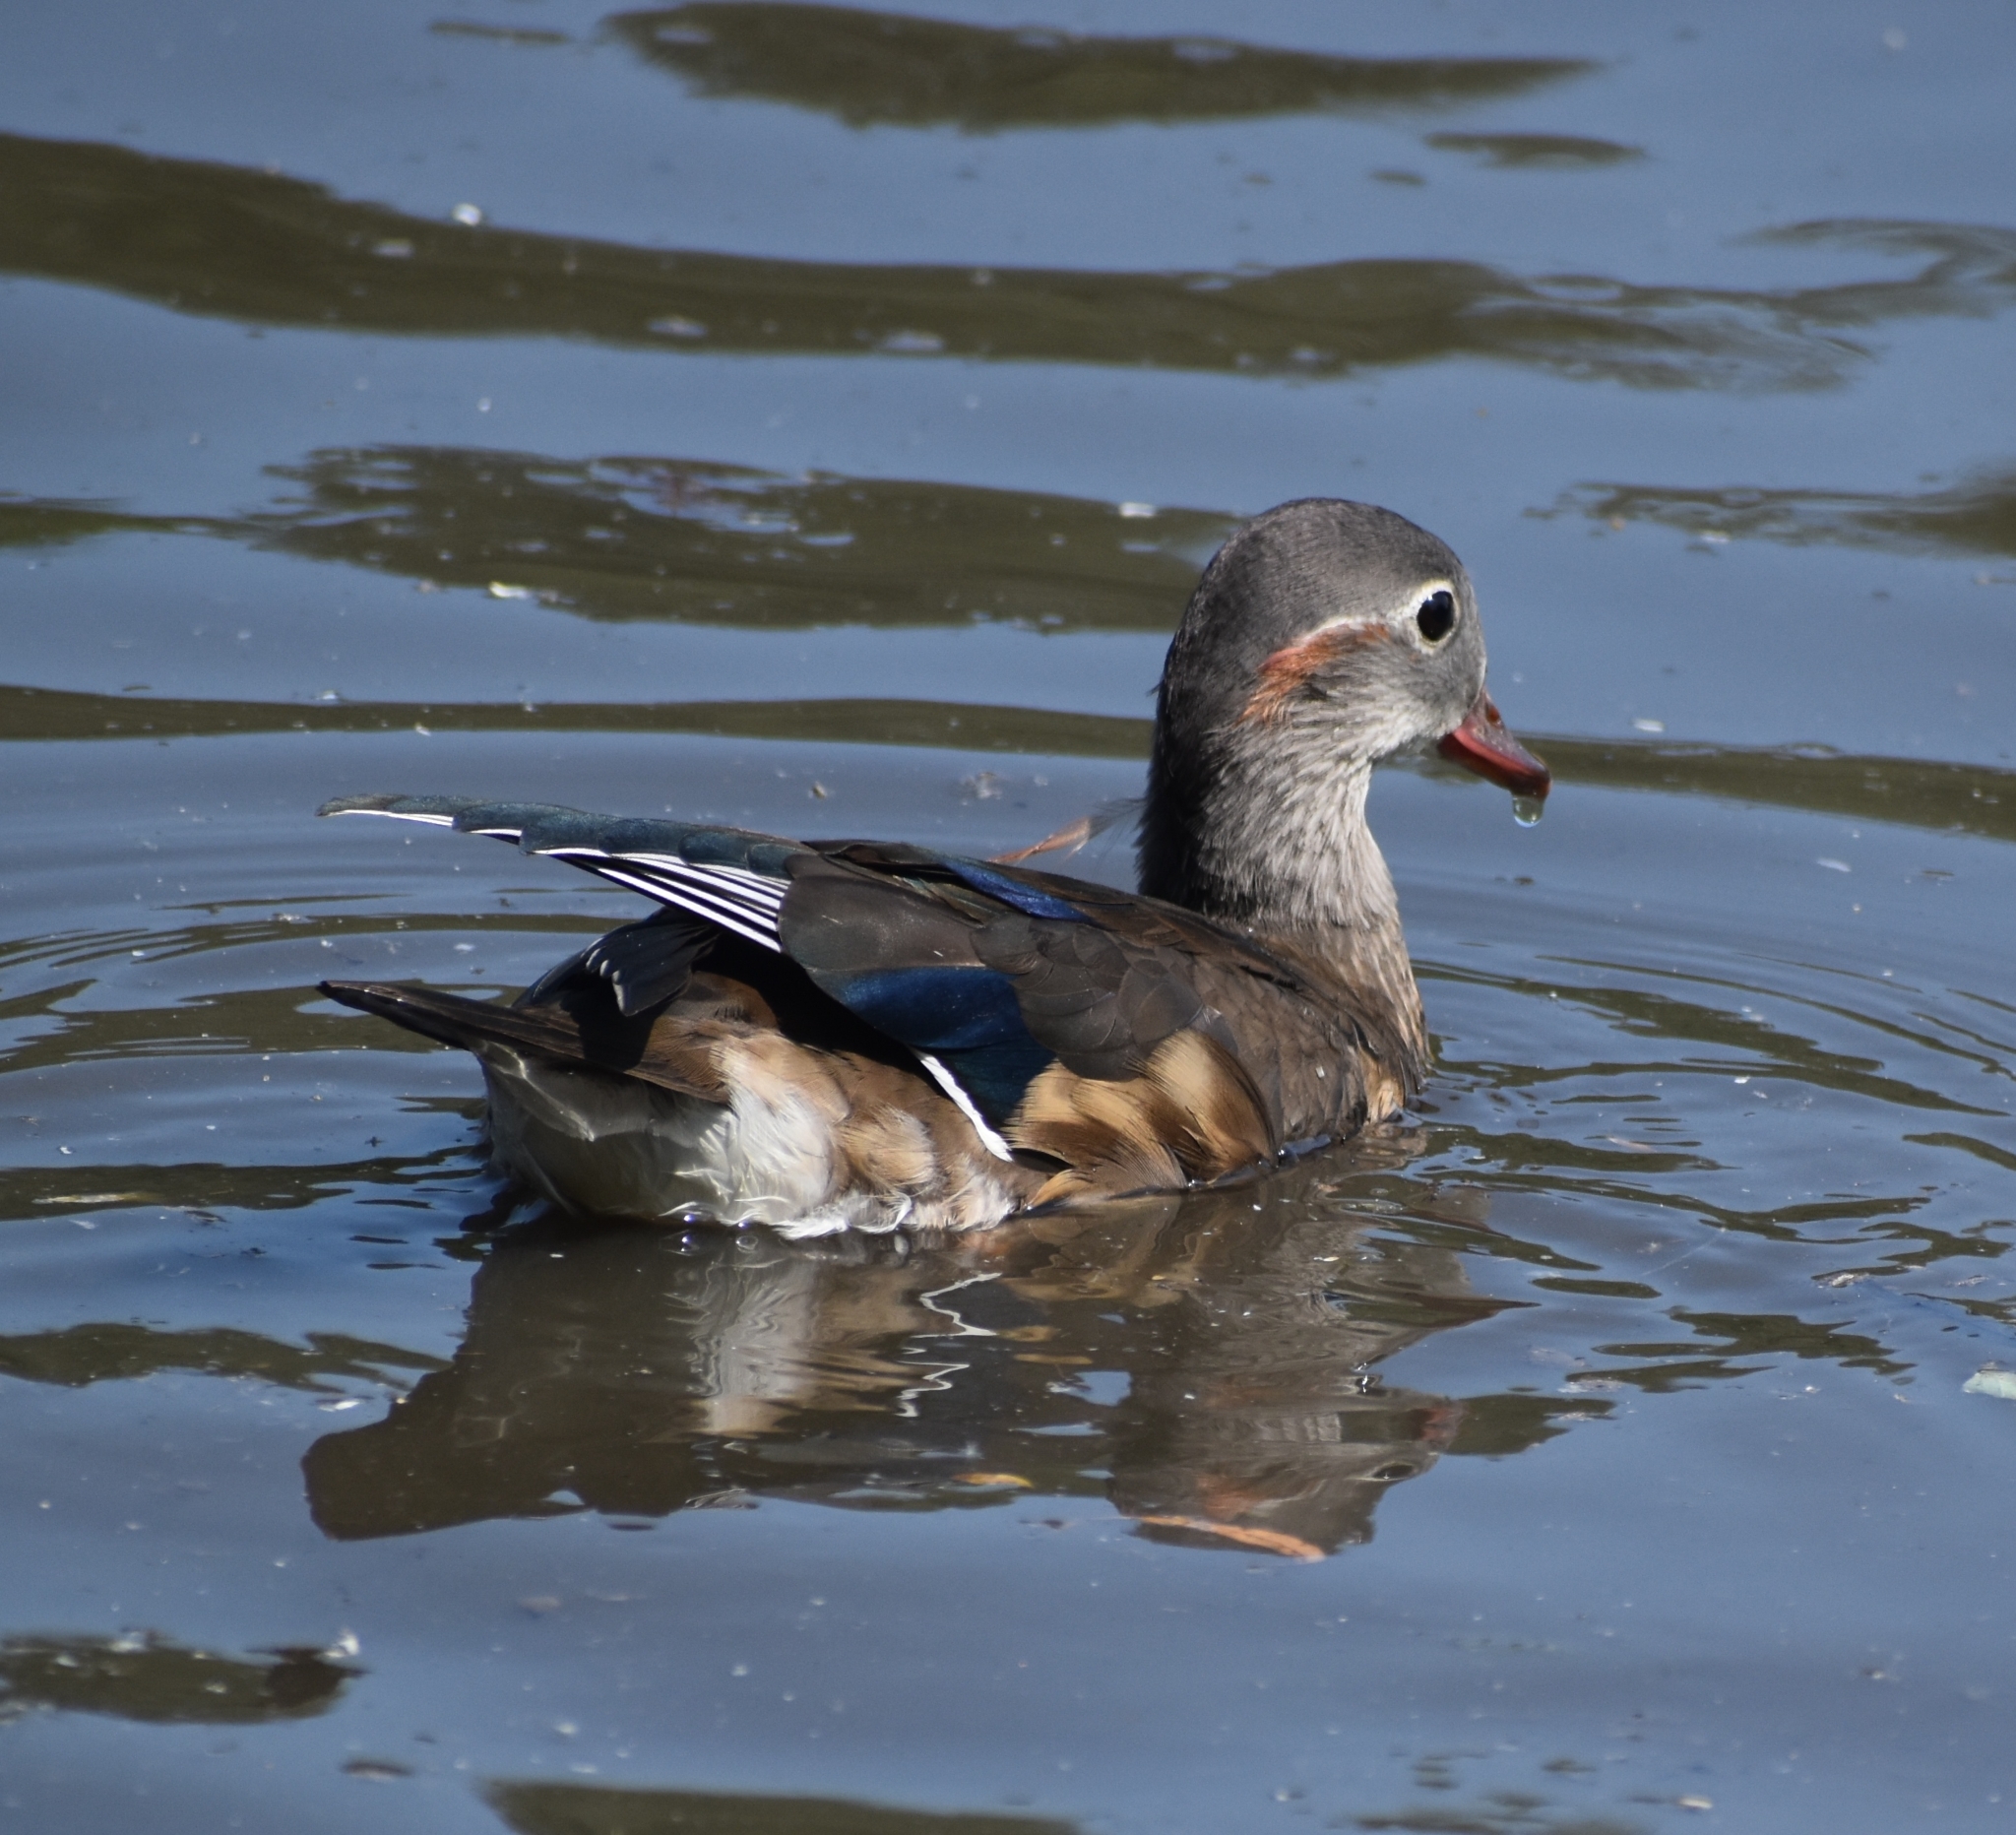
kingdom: Animalia
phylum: Chordata
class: Aves
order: Anseriformes
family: Anatidae
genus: Aix
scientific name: Aix galericulata
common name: Mandarin duck
